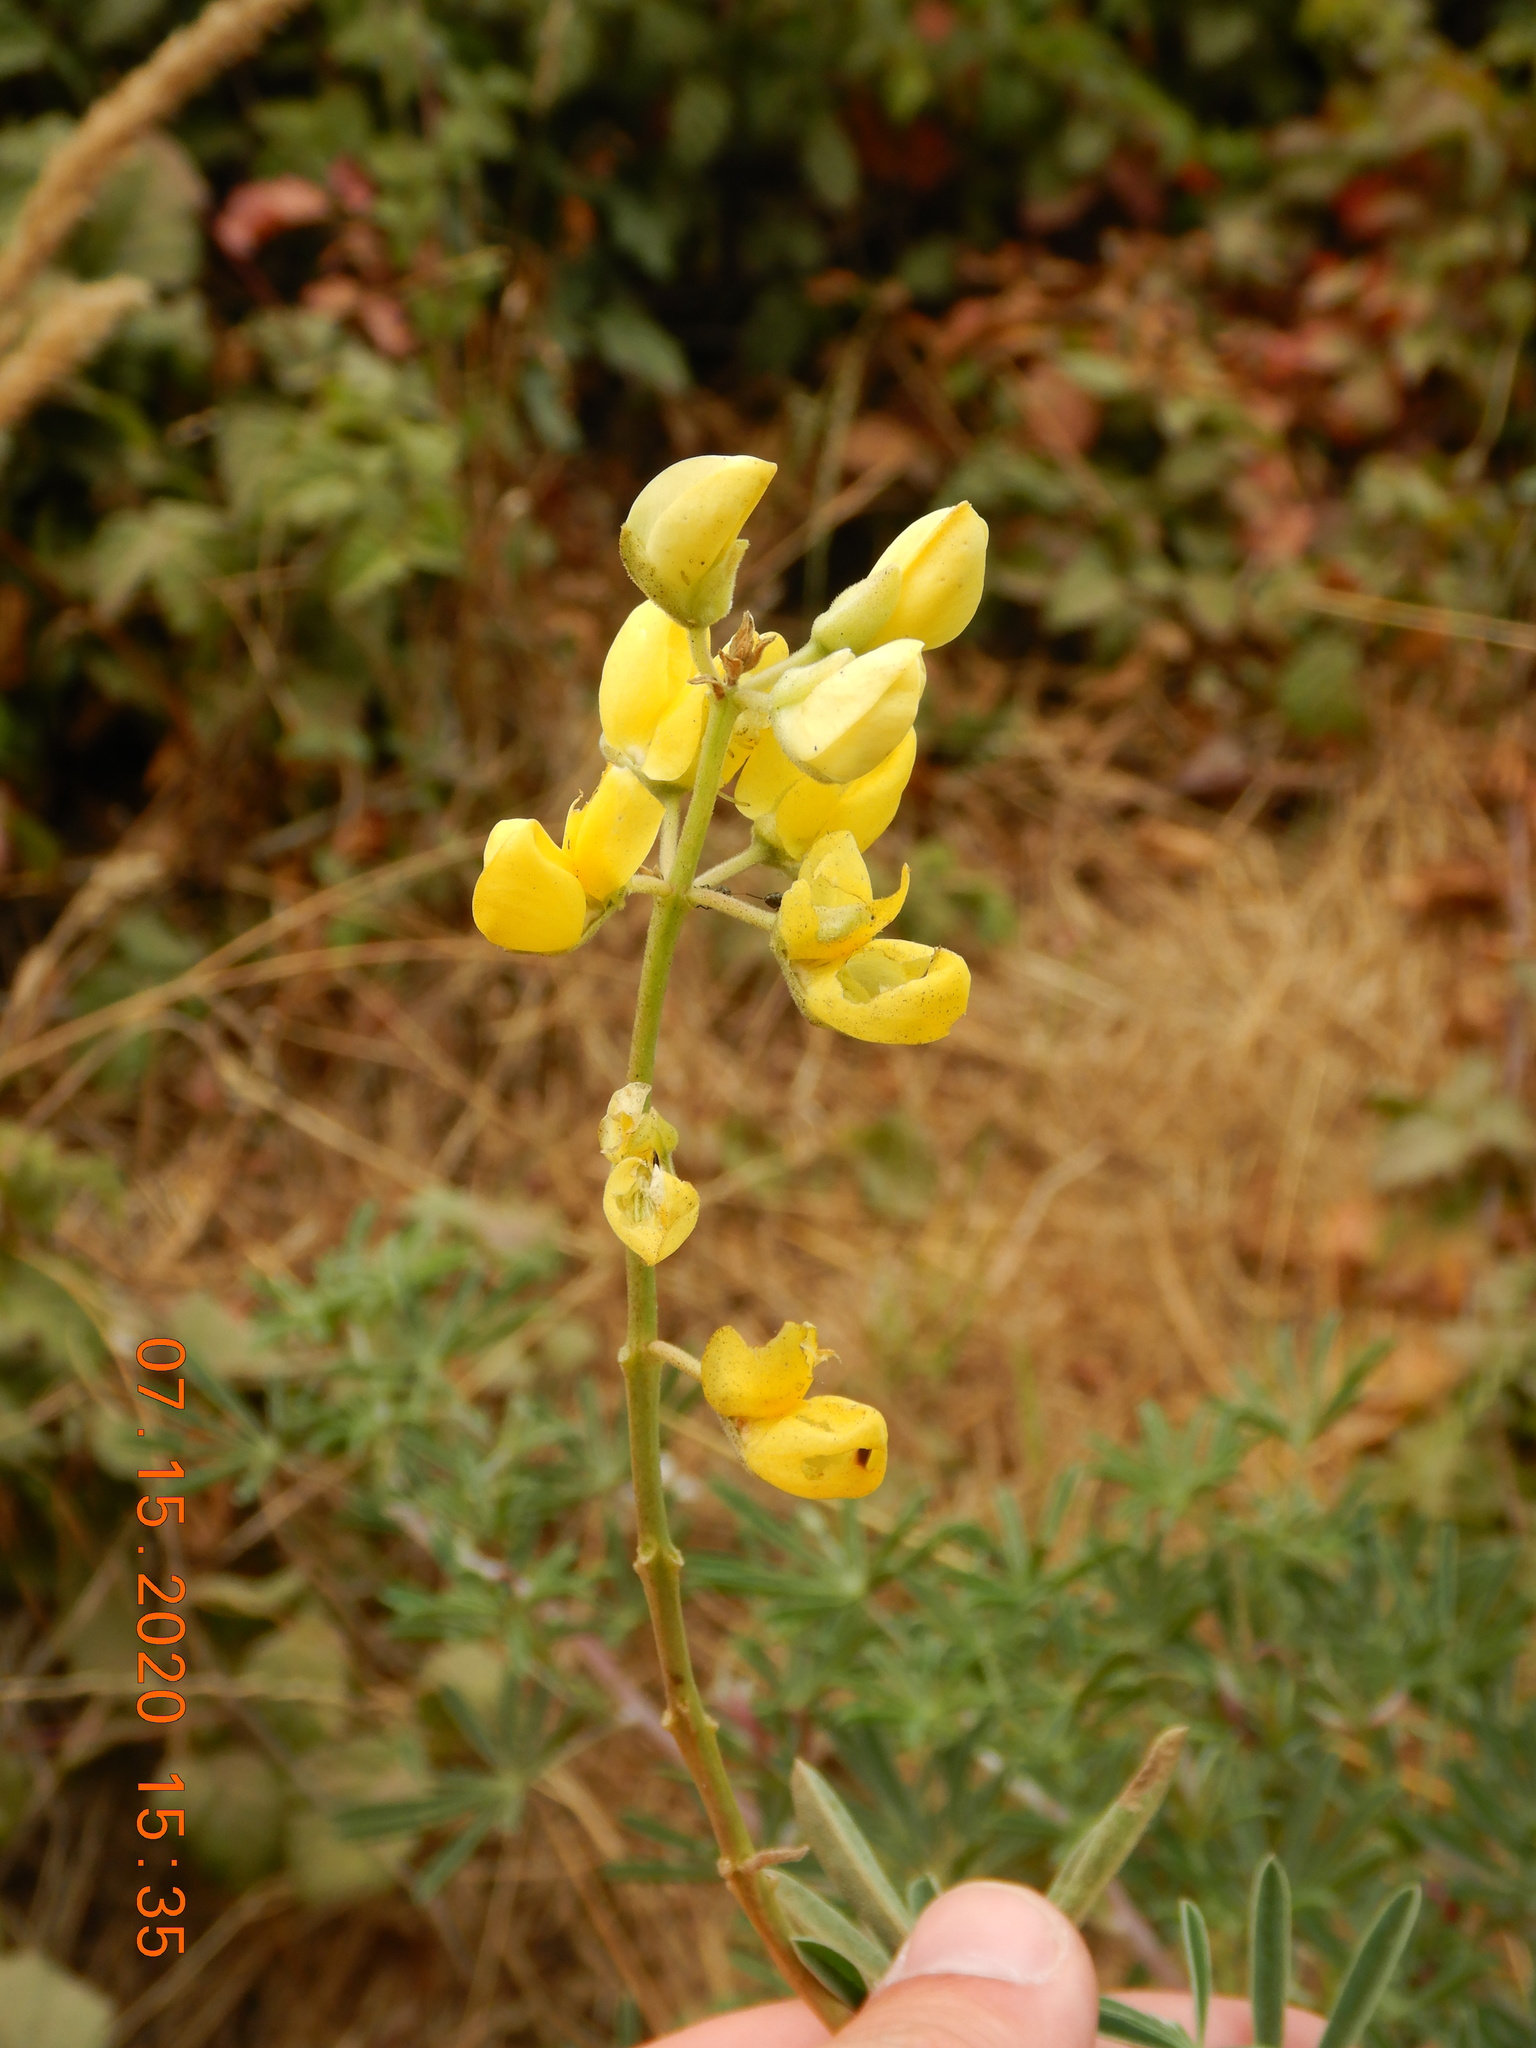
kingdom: Plantae
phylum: Tracheophyta
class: Magnoliopsida
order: Fabales
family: Fabaceae
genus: Lupinus
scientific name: Lupinus arboreus
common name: Yellow bush lupine
